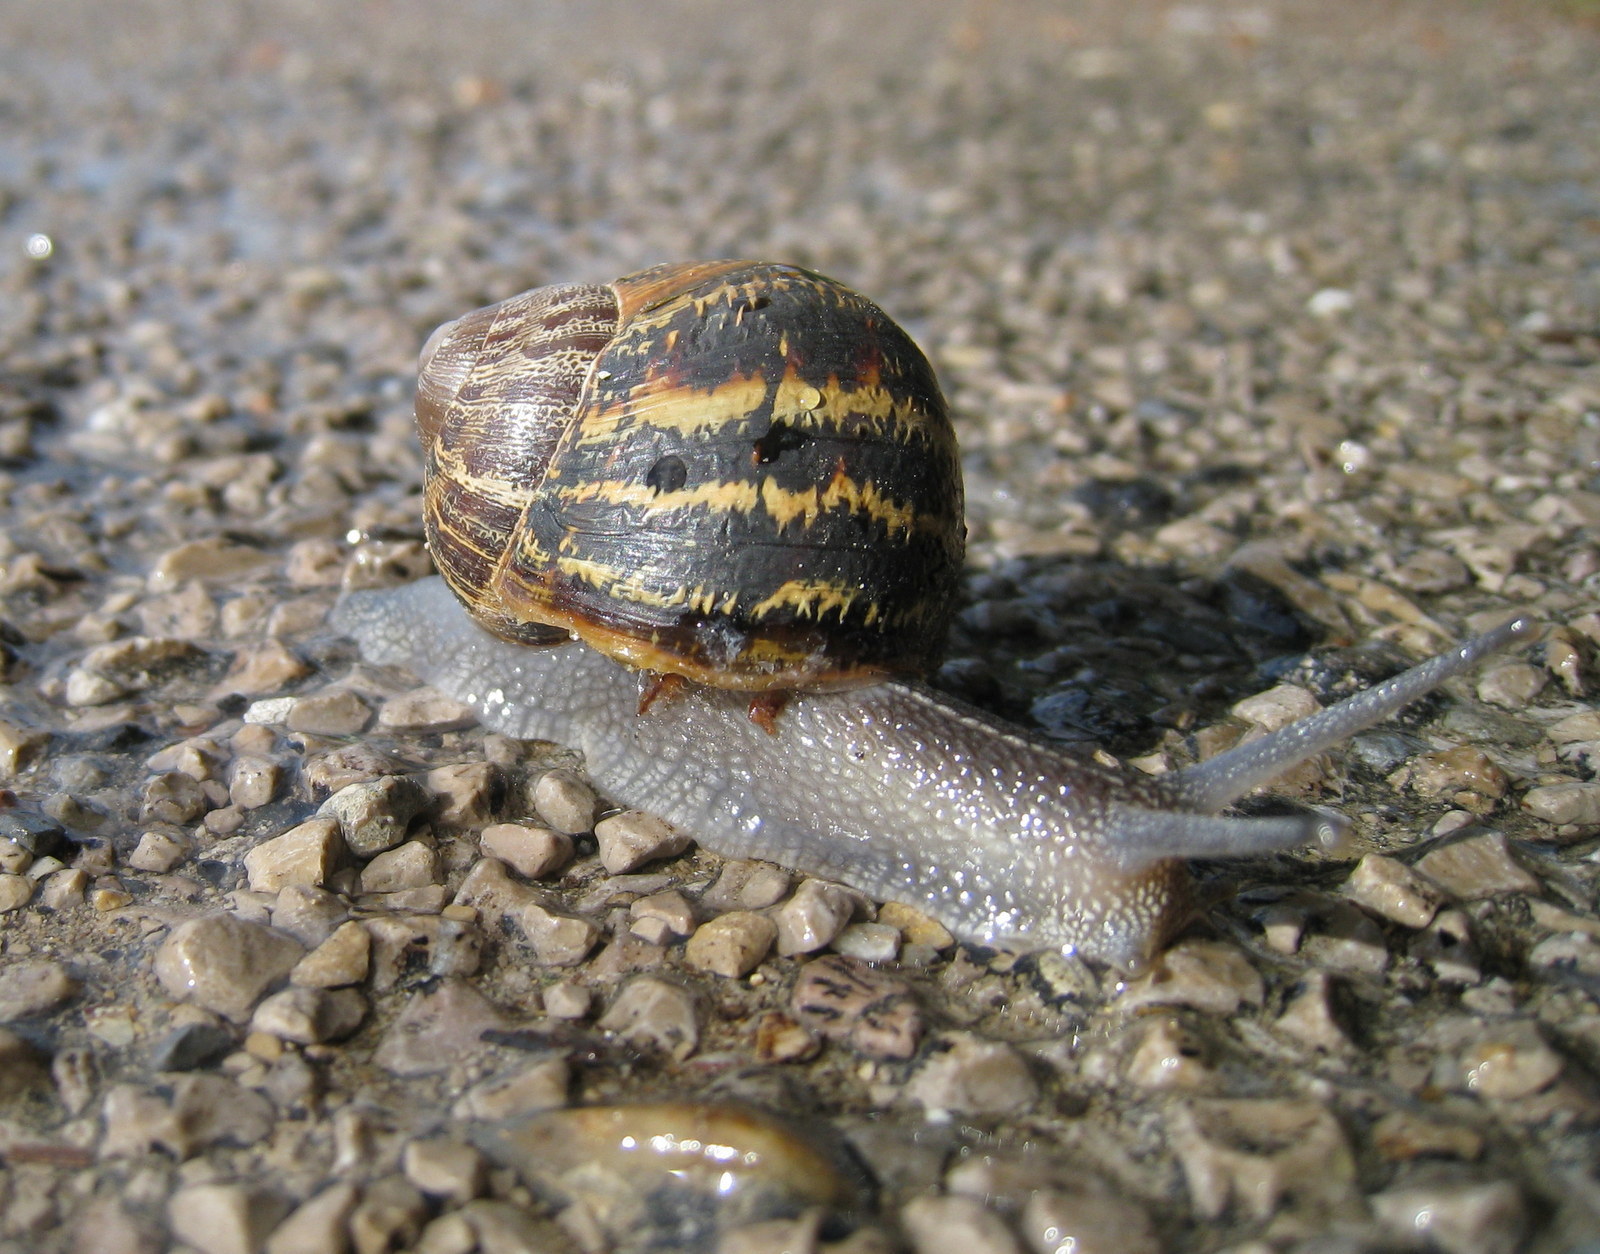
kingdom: Animalia
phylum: Mollusca
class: Gastropoda
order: Stylommatophora
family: Helicidae
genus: Cornu
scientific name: Cornu aspersum
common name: Brown garden snail
